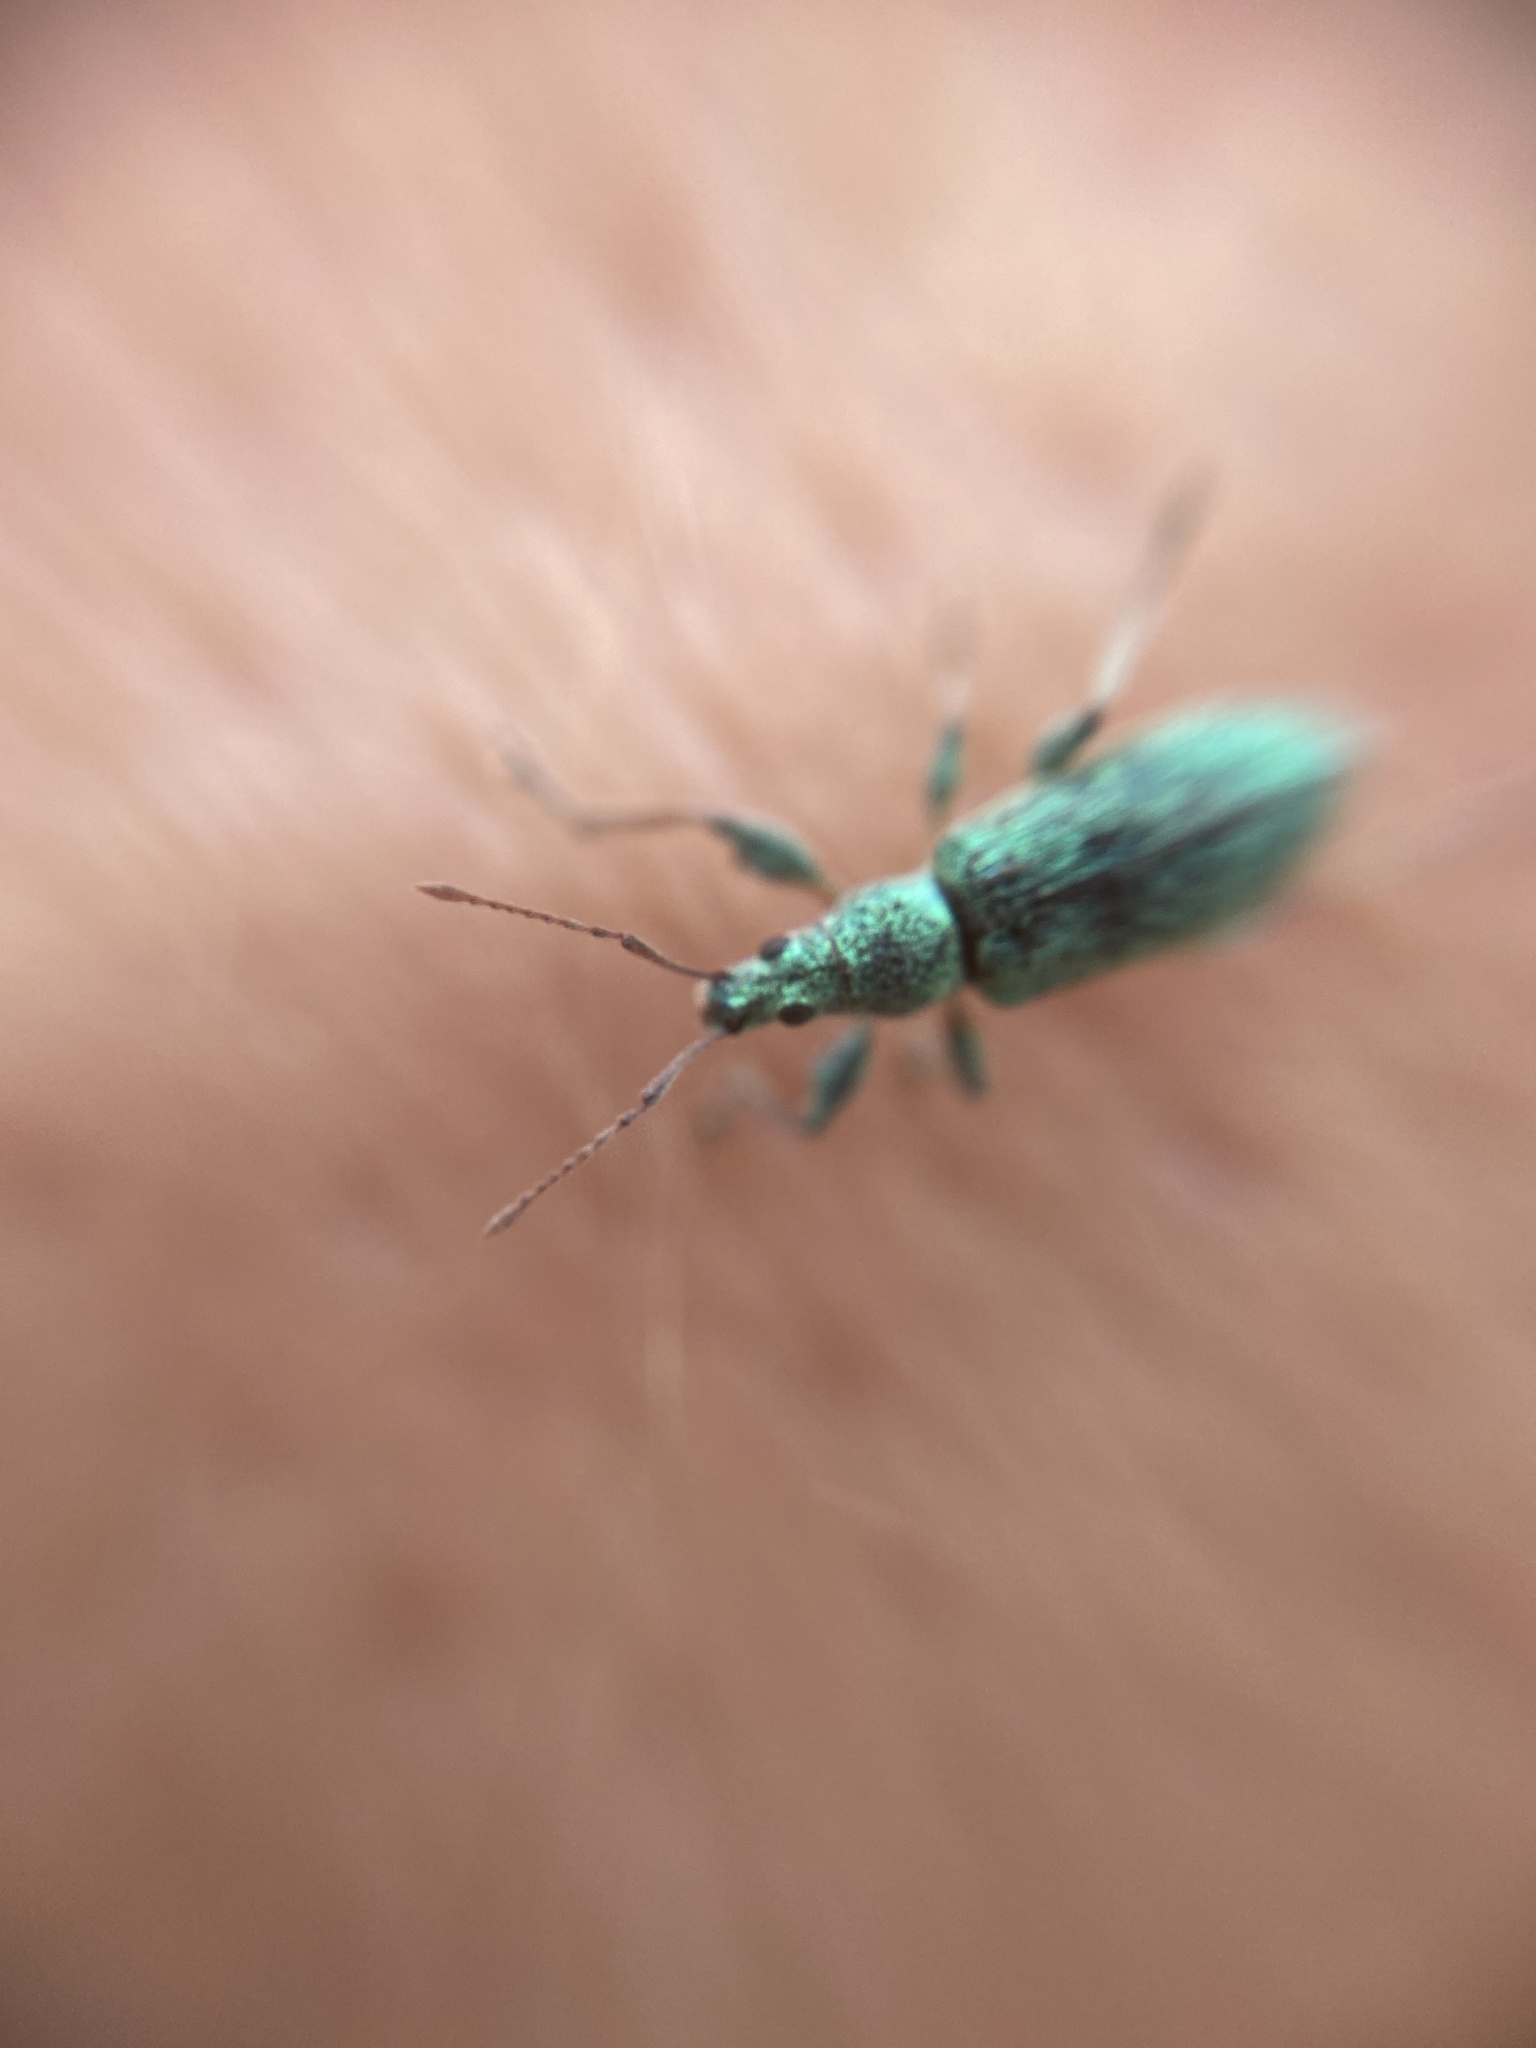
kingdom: Animalia
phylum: Arthropoda
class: Insecta
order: Coleoptera
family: Curculionidae
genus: Phyllobius
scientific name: Phyllobius arborator
